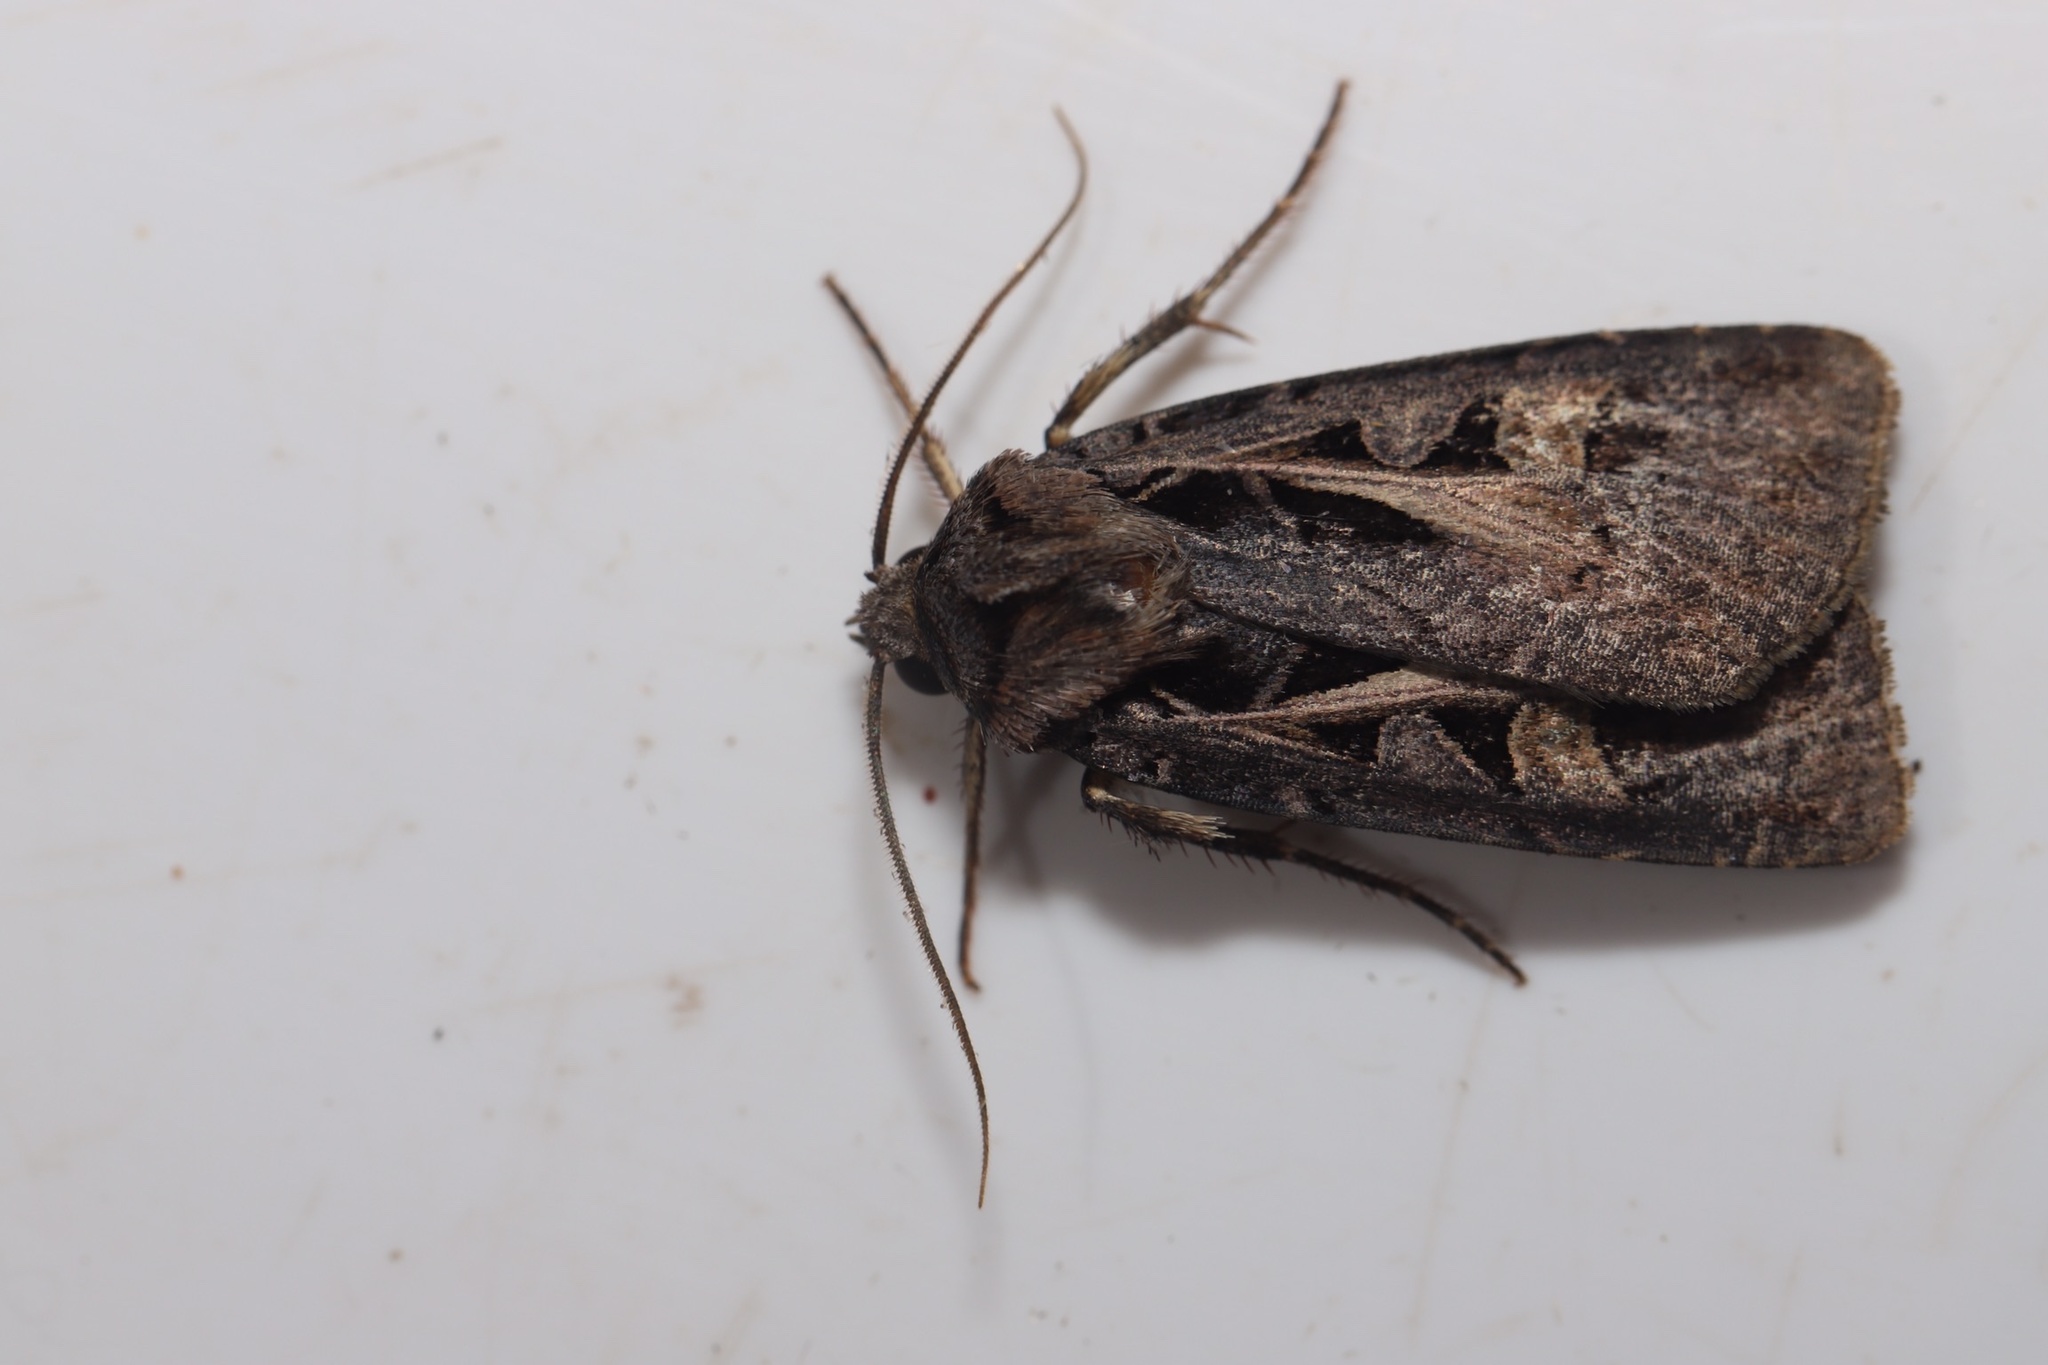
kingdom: Animalia
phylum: Arthropoda
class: Insecta
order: Lepidoptera
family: Noctuidae
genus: Feltia
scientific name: Feltia herilis
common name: Master's dart
